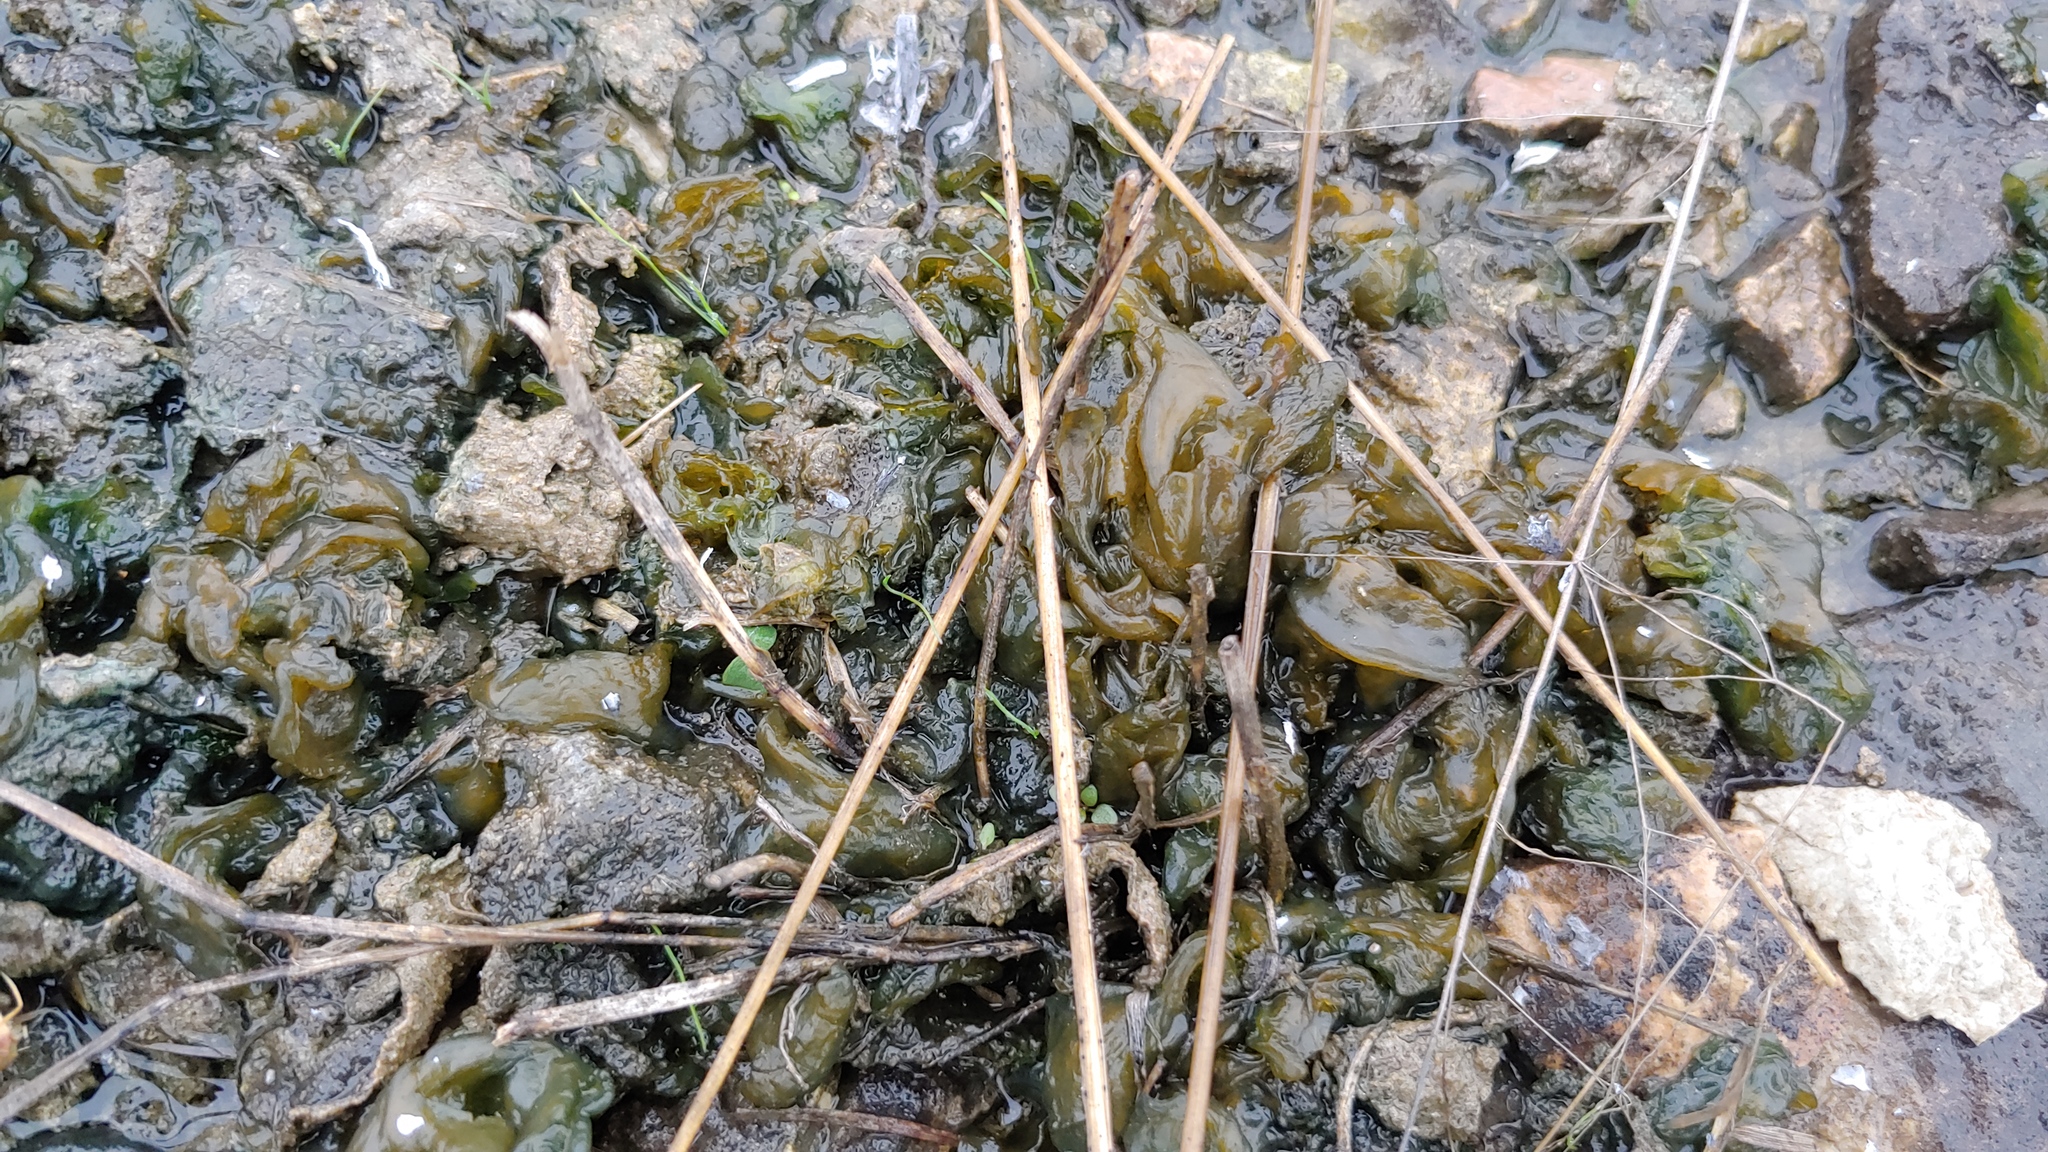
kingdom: Bacteria
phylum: Cyanobacteria
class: Cyanobacteriia
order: Cyanobacteriales
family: Nostocaceae
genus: Nostoc
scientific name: Nostoc commune
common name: Star jelly
